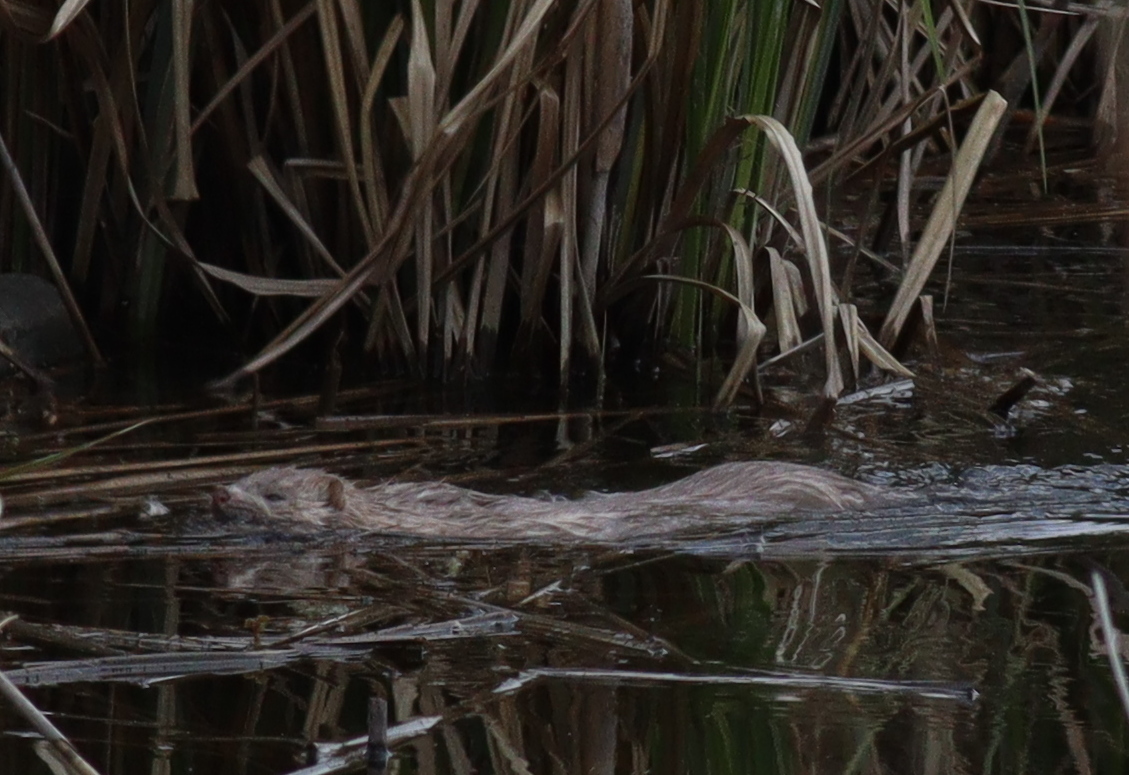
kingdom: Animalia
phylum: Chordata
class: Mammalia
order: Carnivora
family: Mustelidae
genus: Mustela
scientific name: Mustela
